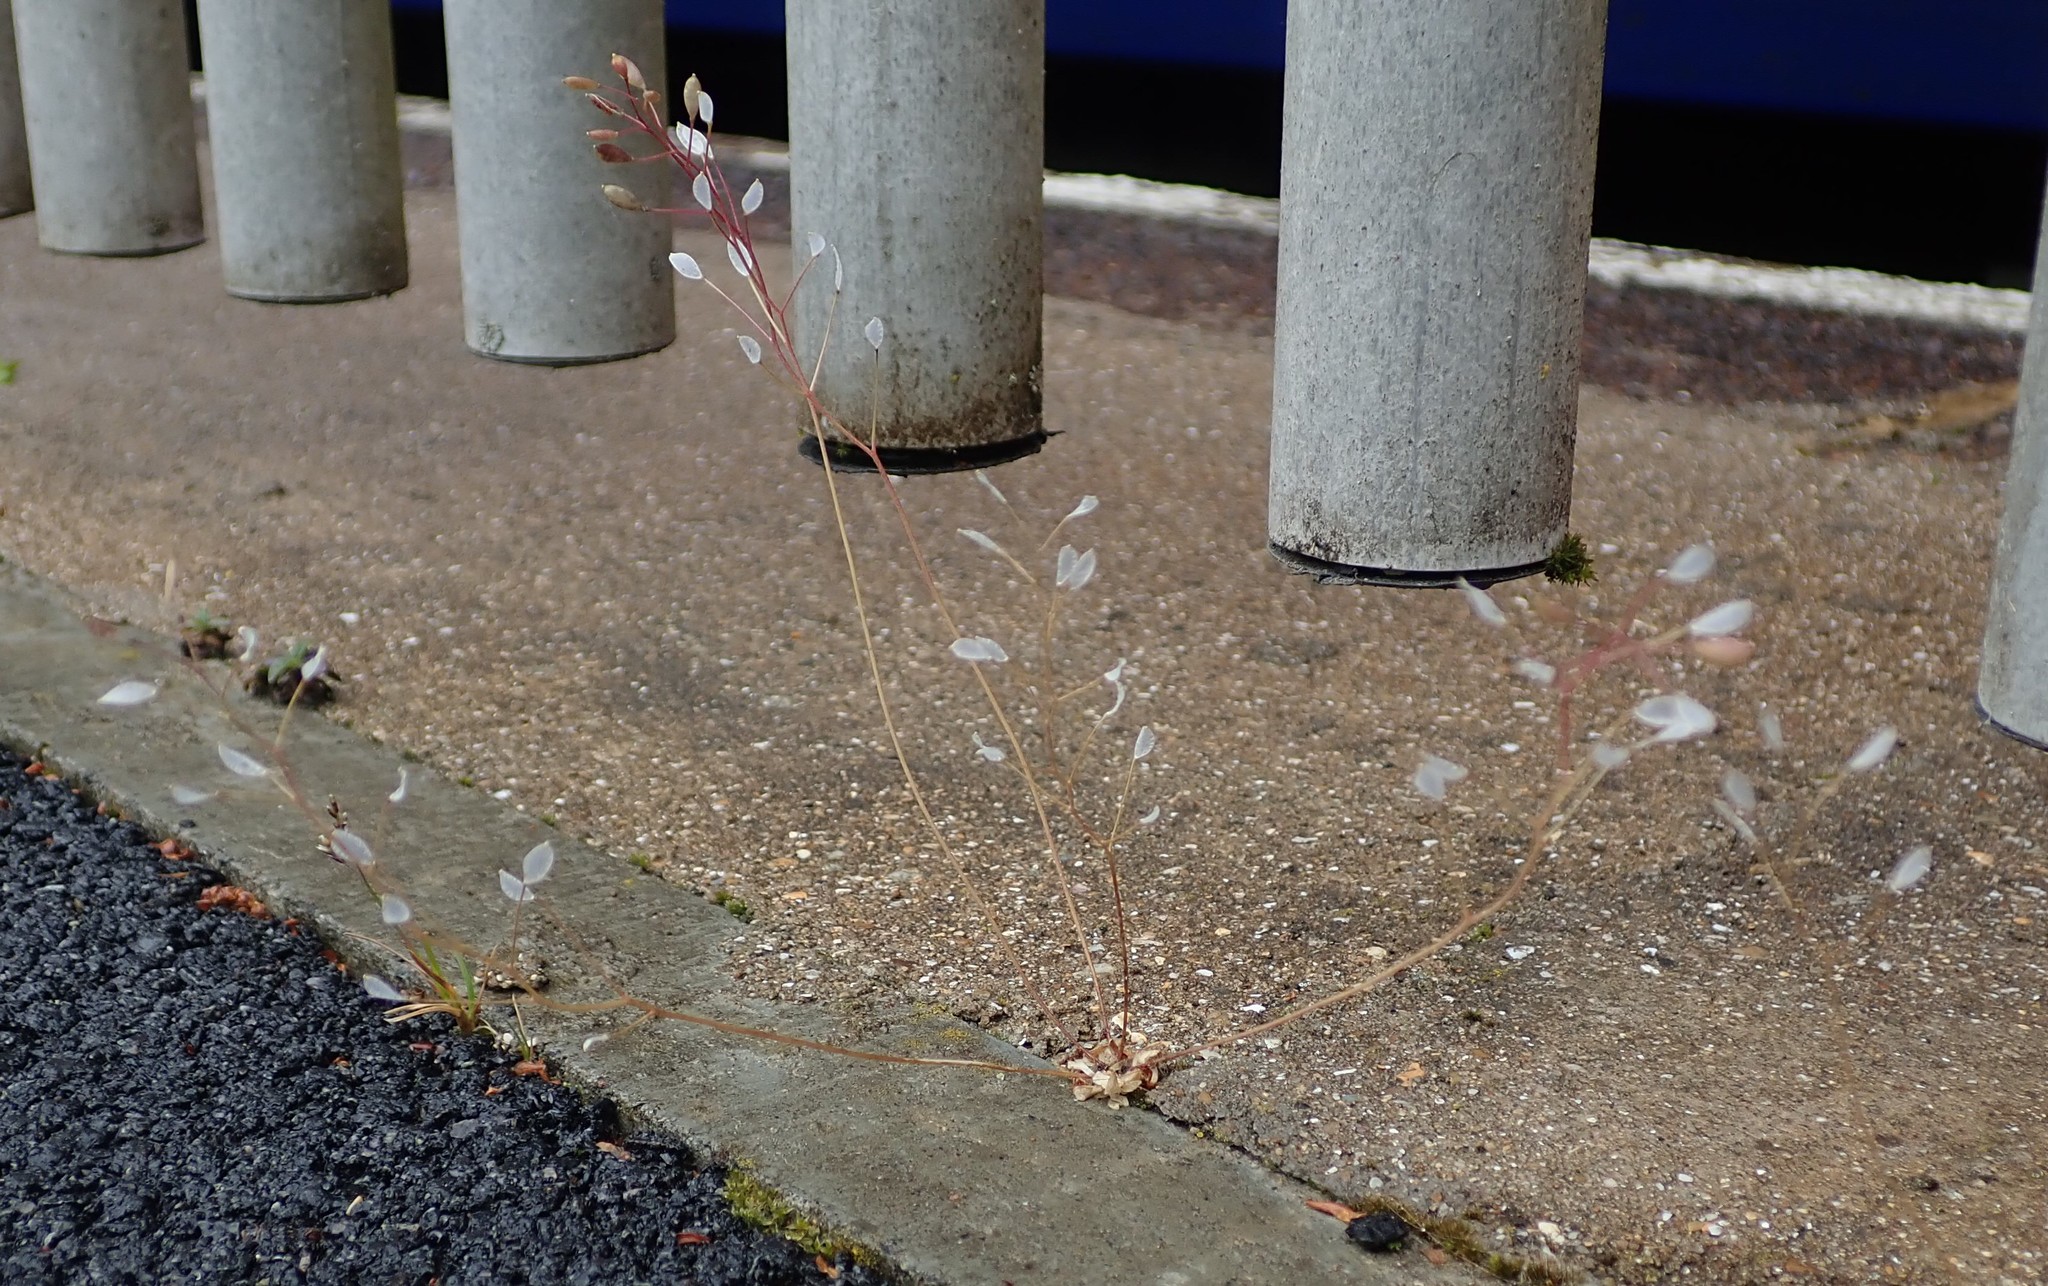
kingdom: Plantae
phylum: Tracheophyta
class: Magnoliopsida
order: Brassicales
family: Brassicaceae
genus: Draba
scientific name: Draba verna
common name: Spring draba
